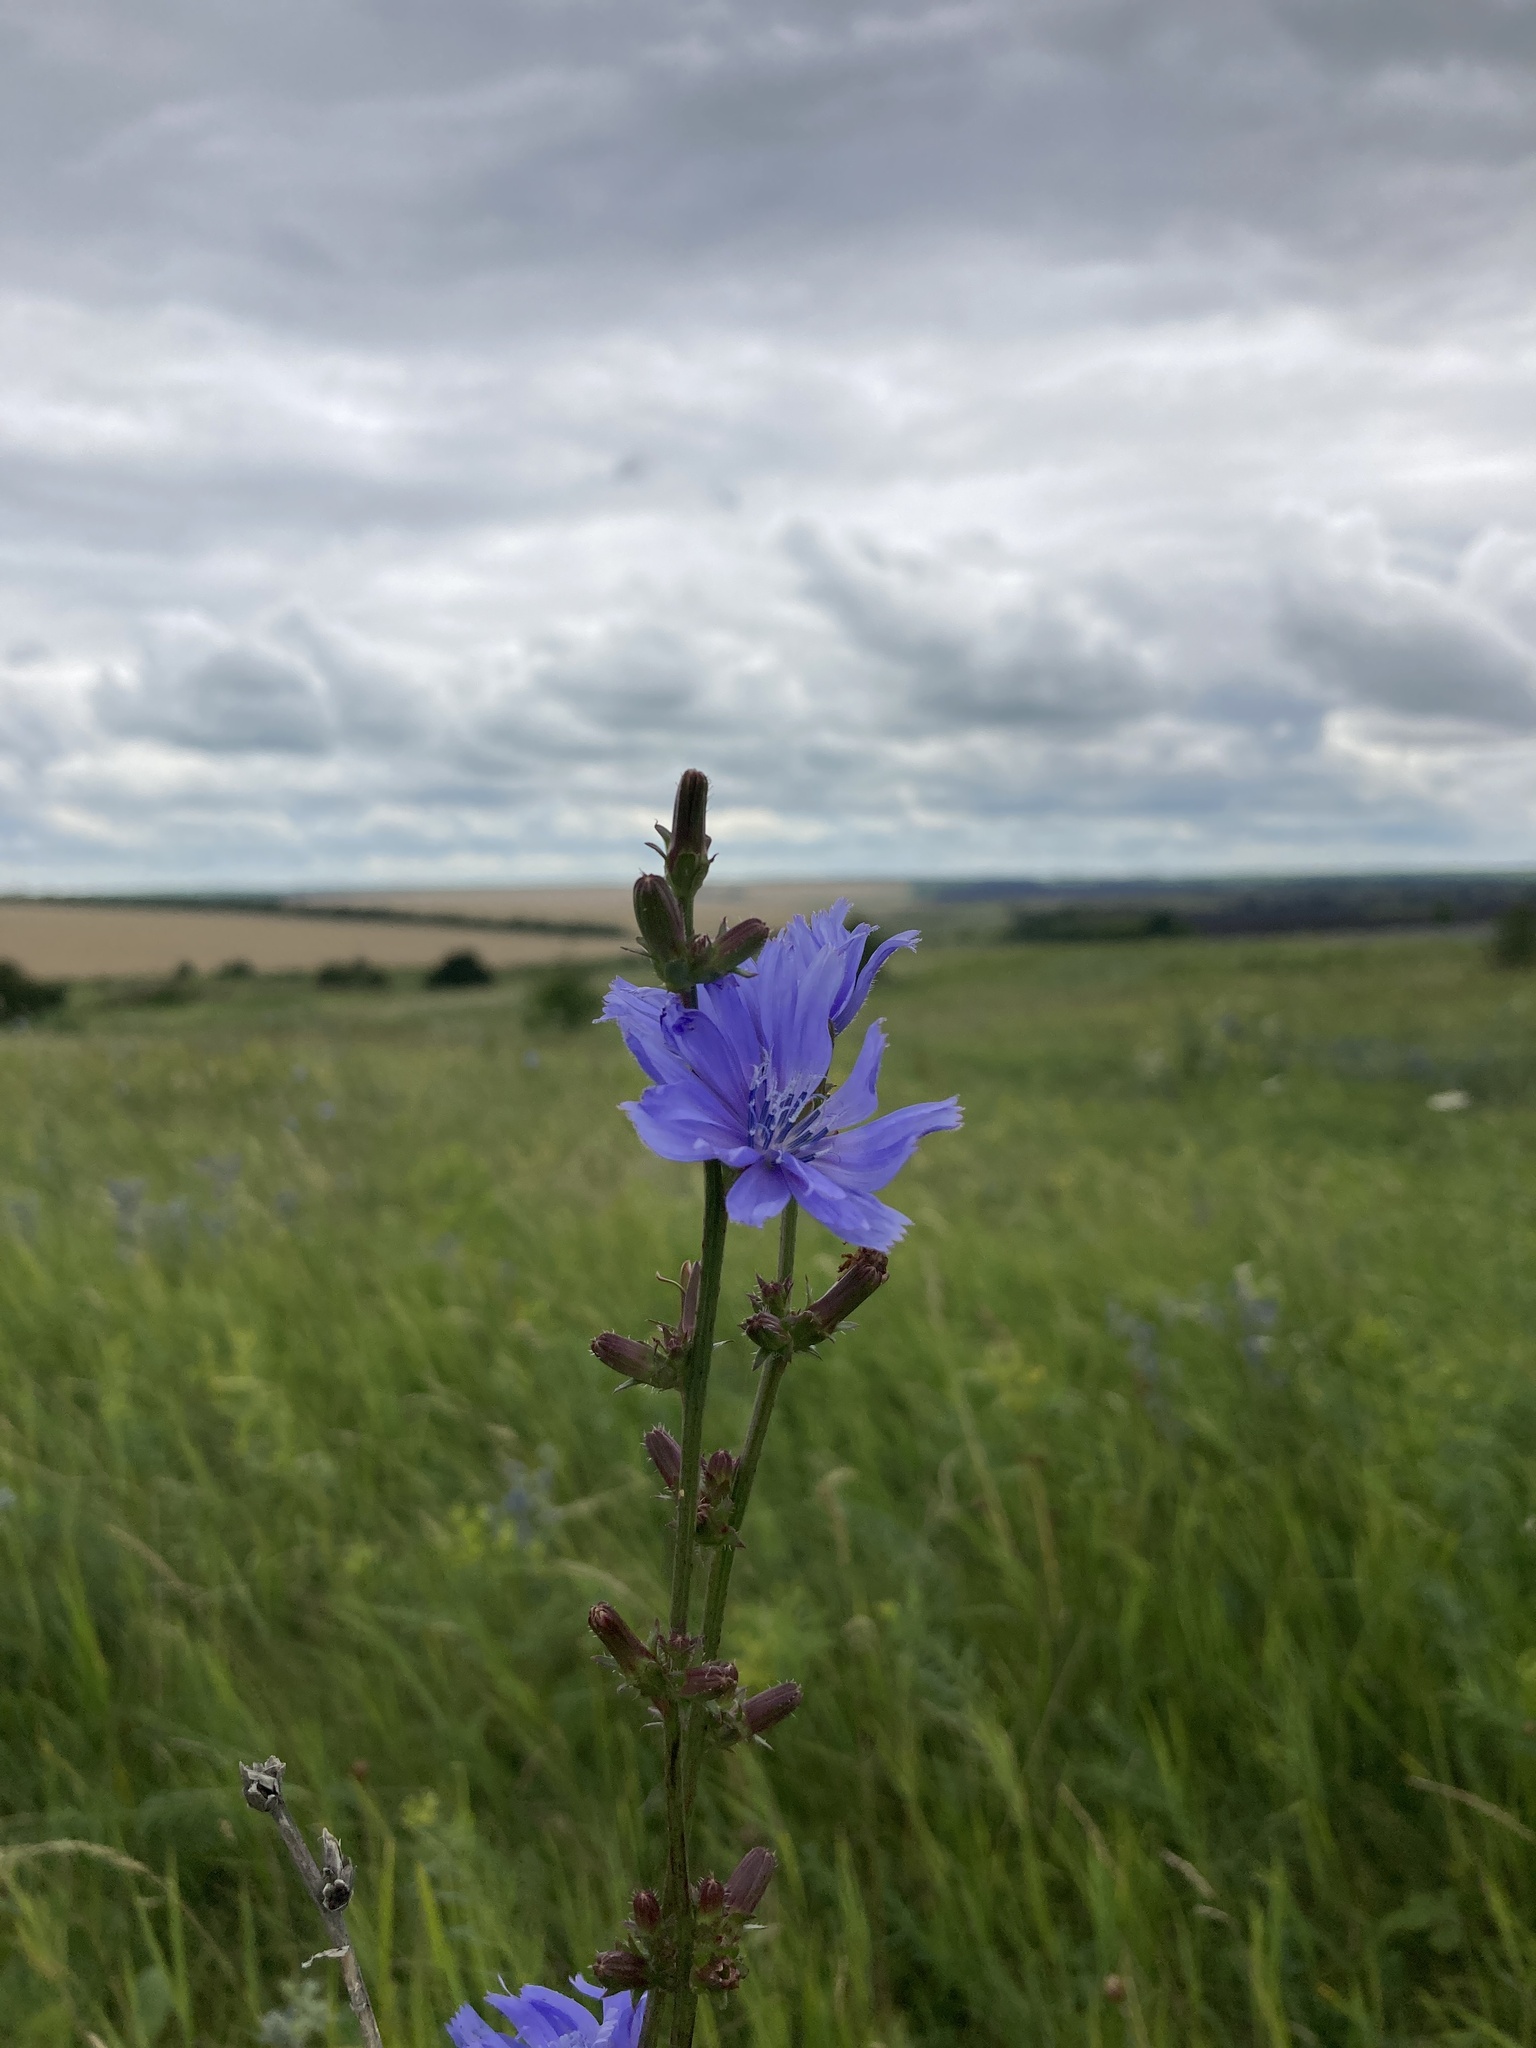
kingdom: Plantae
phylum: Tracheophyta
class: Magnoliopsida
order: Asterales
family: Asteraceae
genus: Cichorium
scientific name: Cichorium intybus
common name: Chicory
